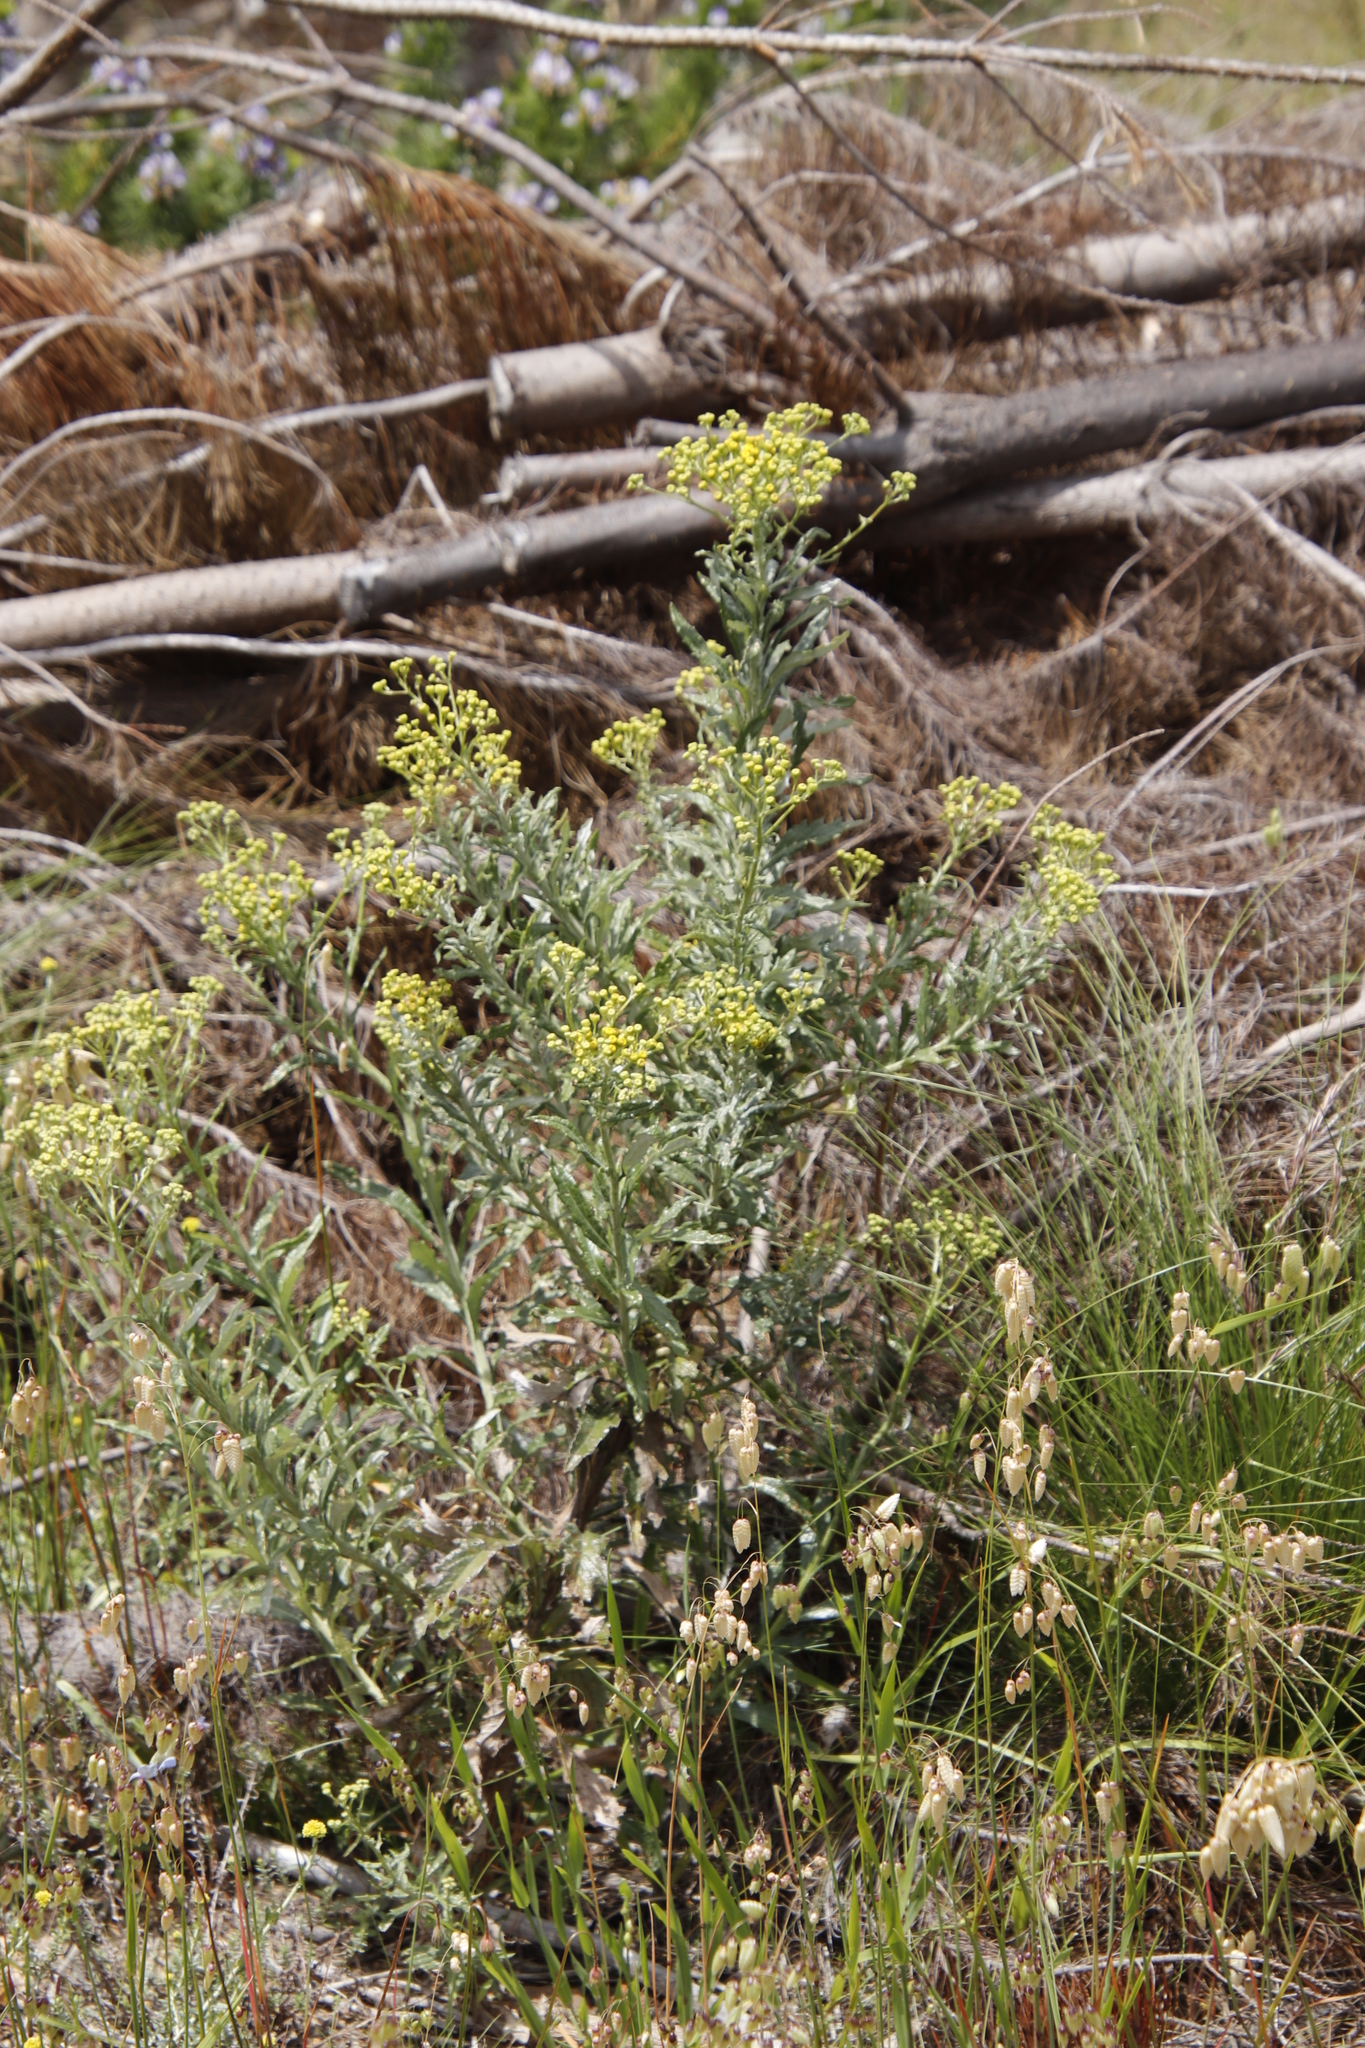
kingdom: Plantae
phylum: Tracheophyta
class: Magnoliopsida
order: Asterales
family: Asteraceae
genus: Senecio
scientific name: Senecio pterophorus
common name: Shoddy ragwort
